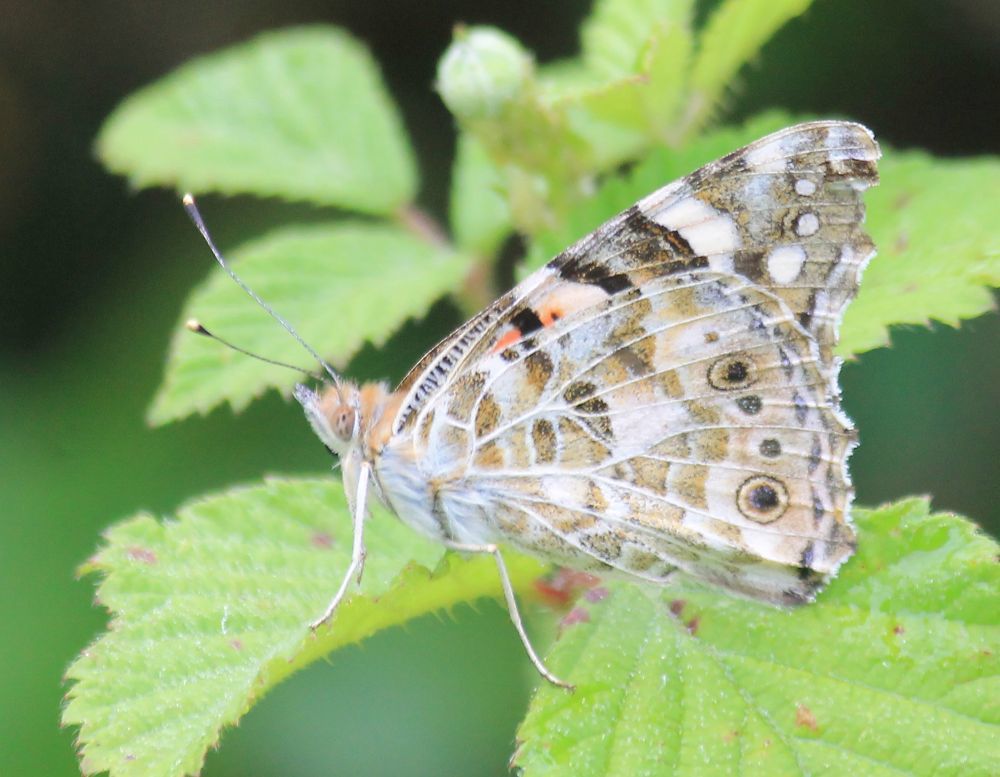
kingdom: Animalia
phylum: Arthropoda
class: Insecta
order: Lepidoptera
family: Nymphalidae
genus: Vanessa
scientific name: Vanessa cardui
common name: Painted lady
